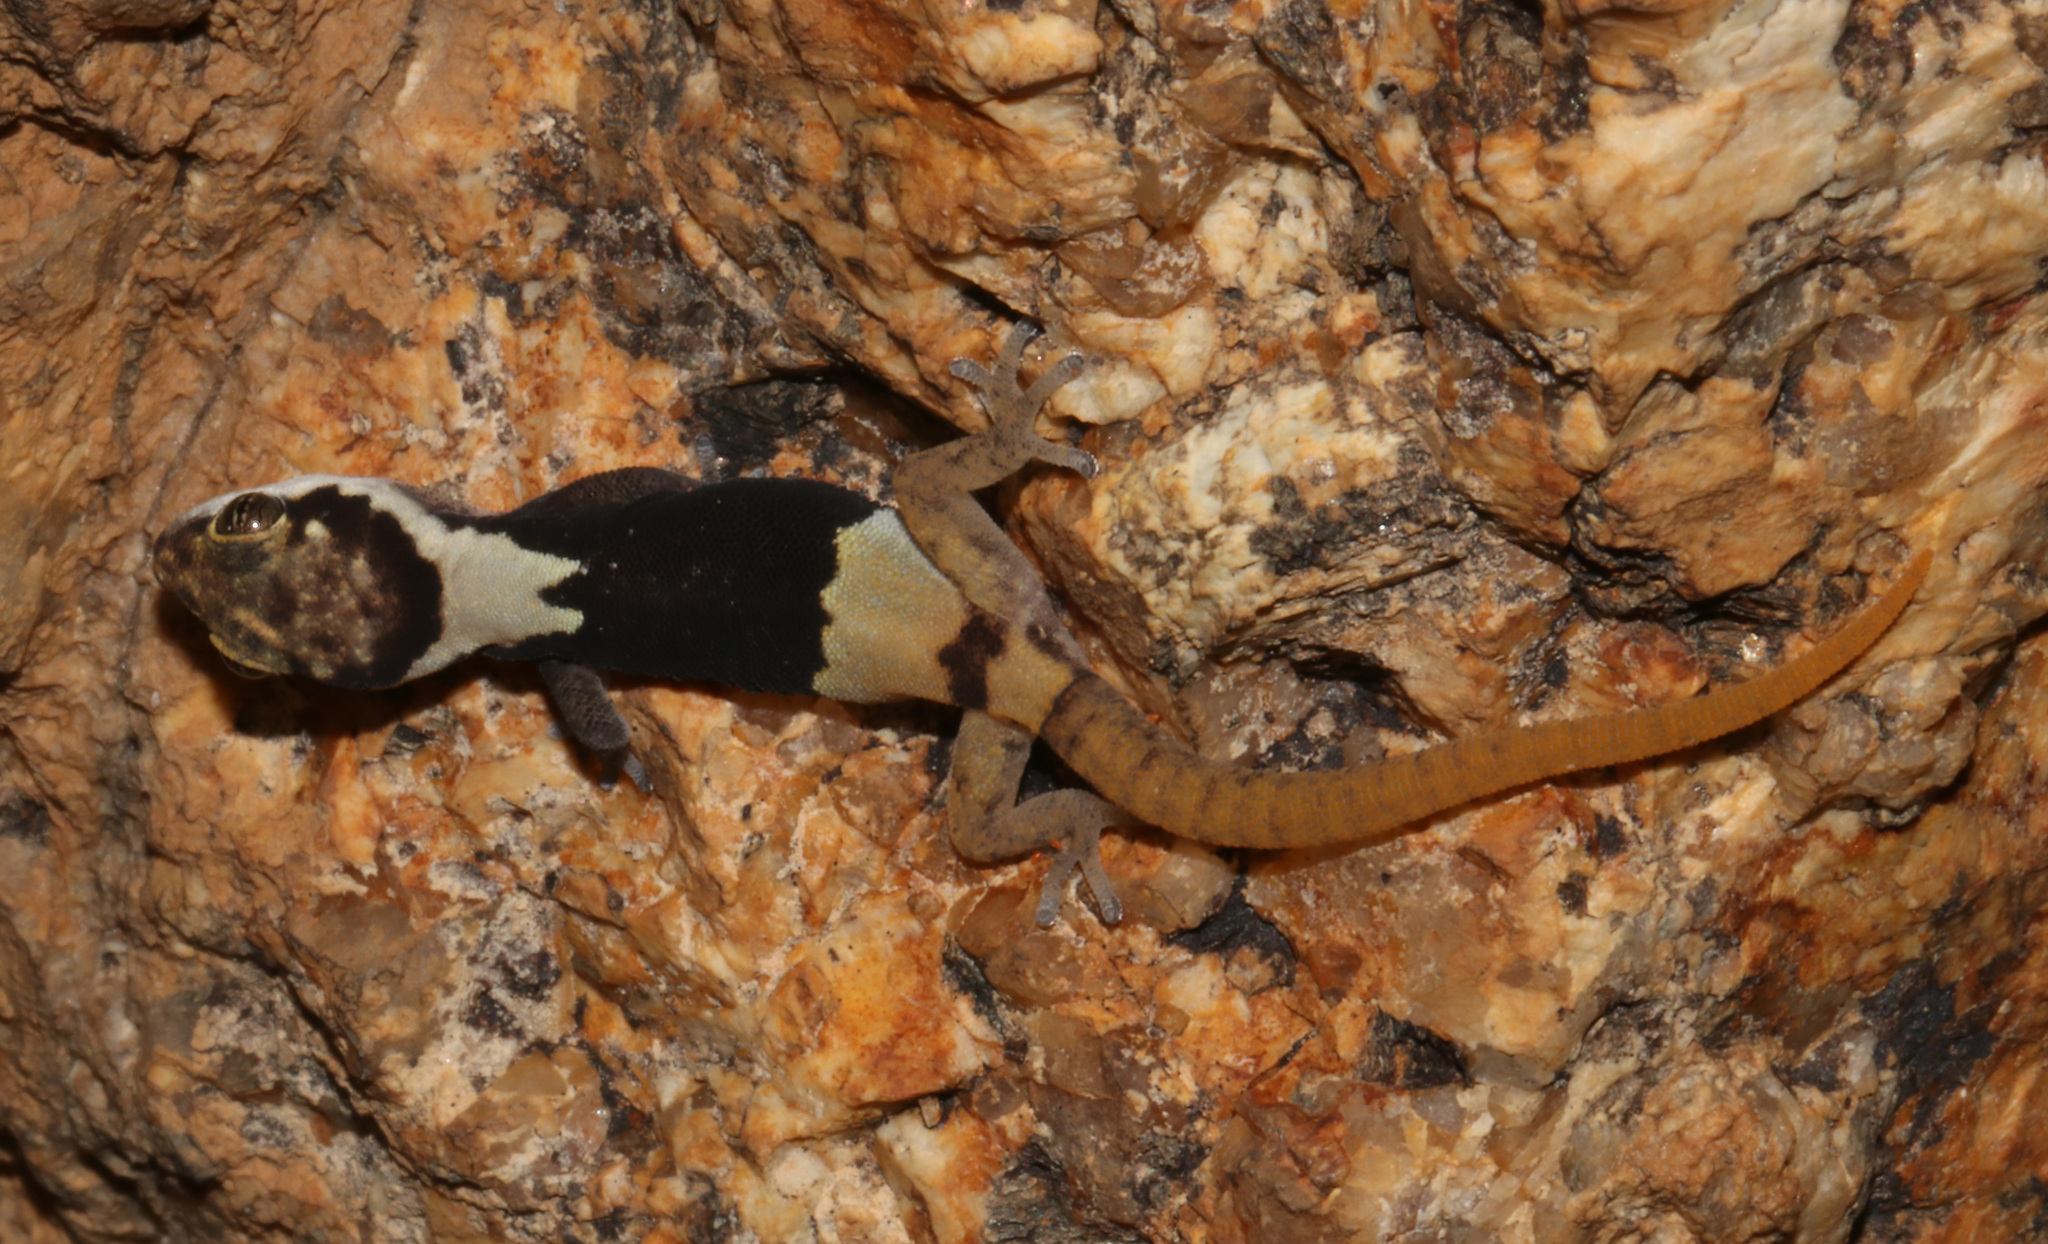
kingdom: Animalia
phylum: Chordata
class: Squamata
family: Gekkonidae
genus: Pachydactylus
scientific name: Pachydactylus bicolor
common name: Two-colored thick-toed gecko
